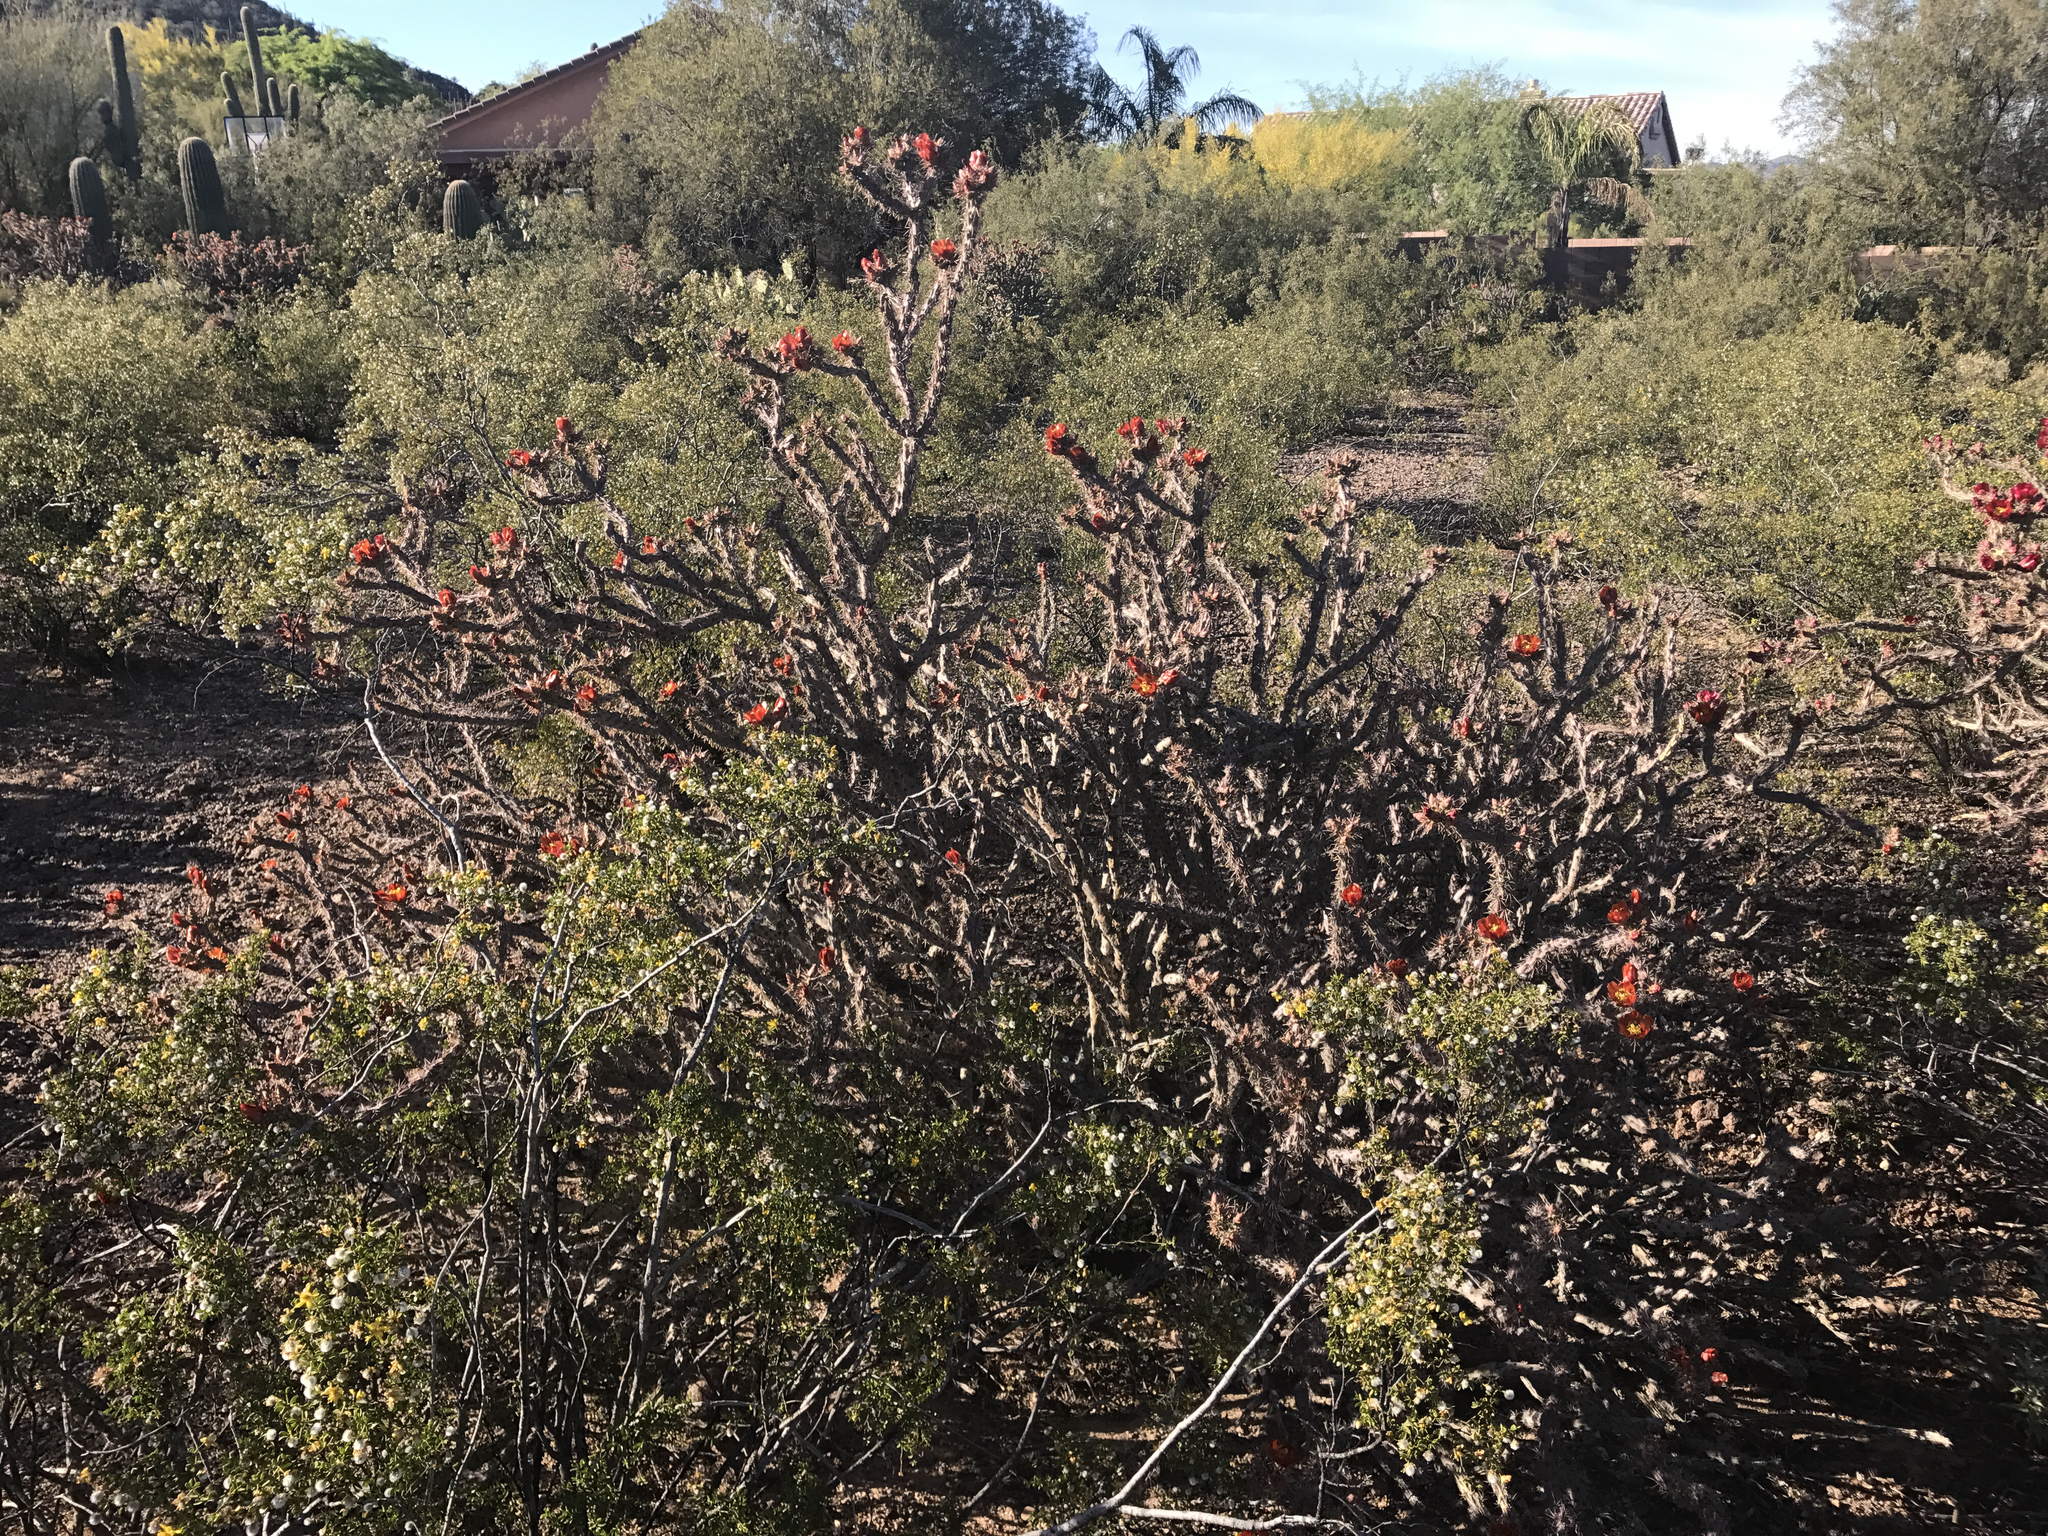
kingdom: Plantae
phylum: Tracheophyta
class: Magnoliopsida
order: Caryophyllales
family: Cactaceae
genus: Cylindropuntia
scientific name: Cylindropuntia acanthocarpa
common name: Buckhorn cholla
